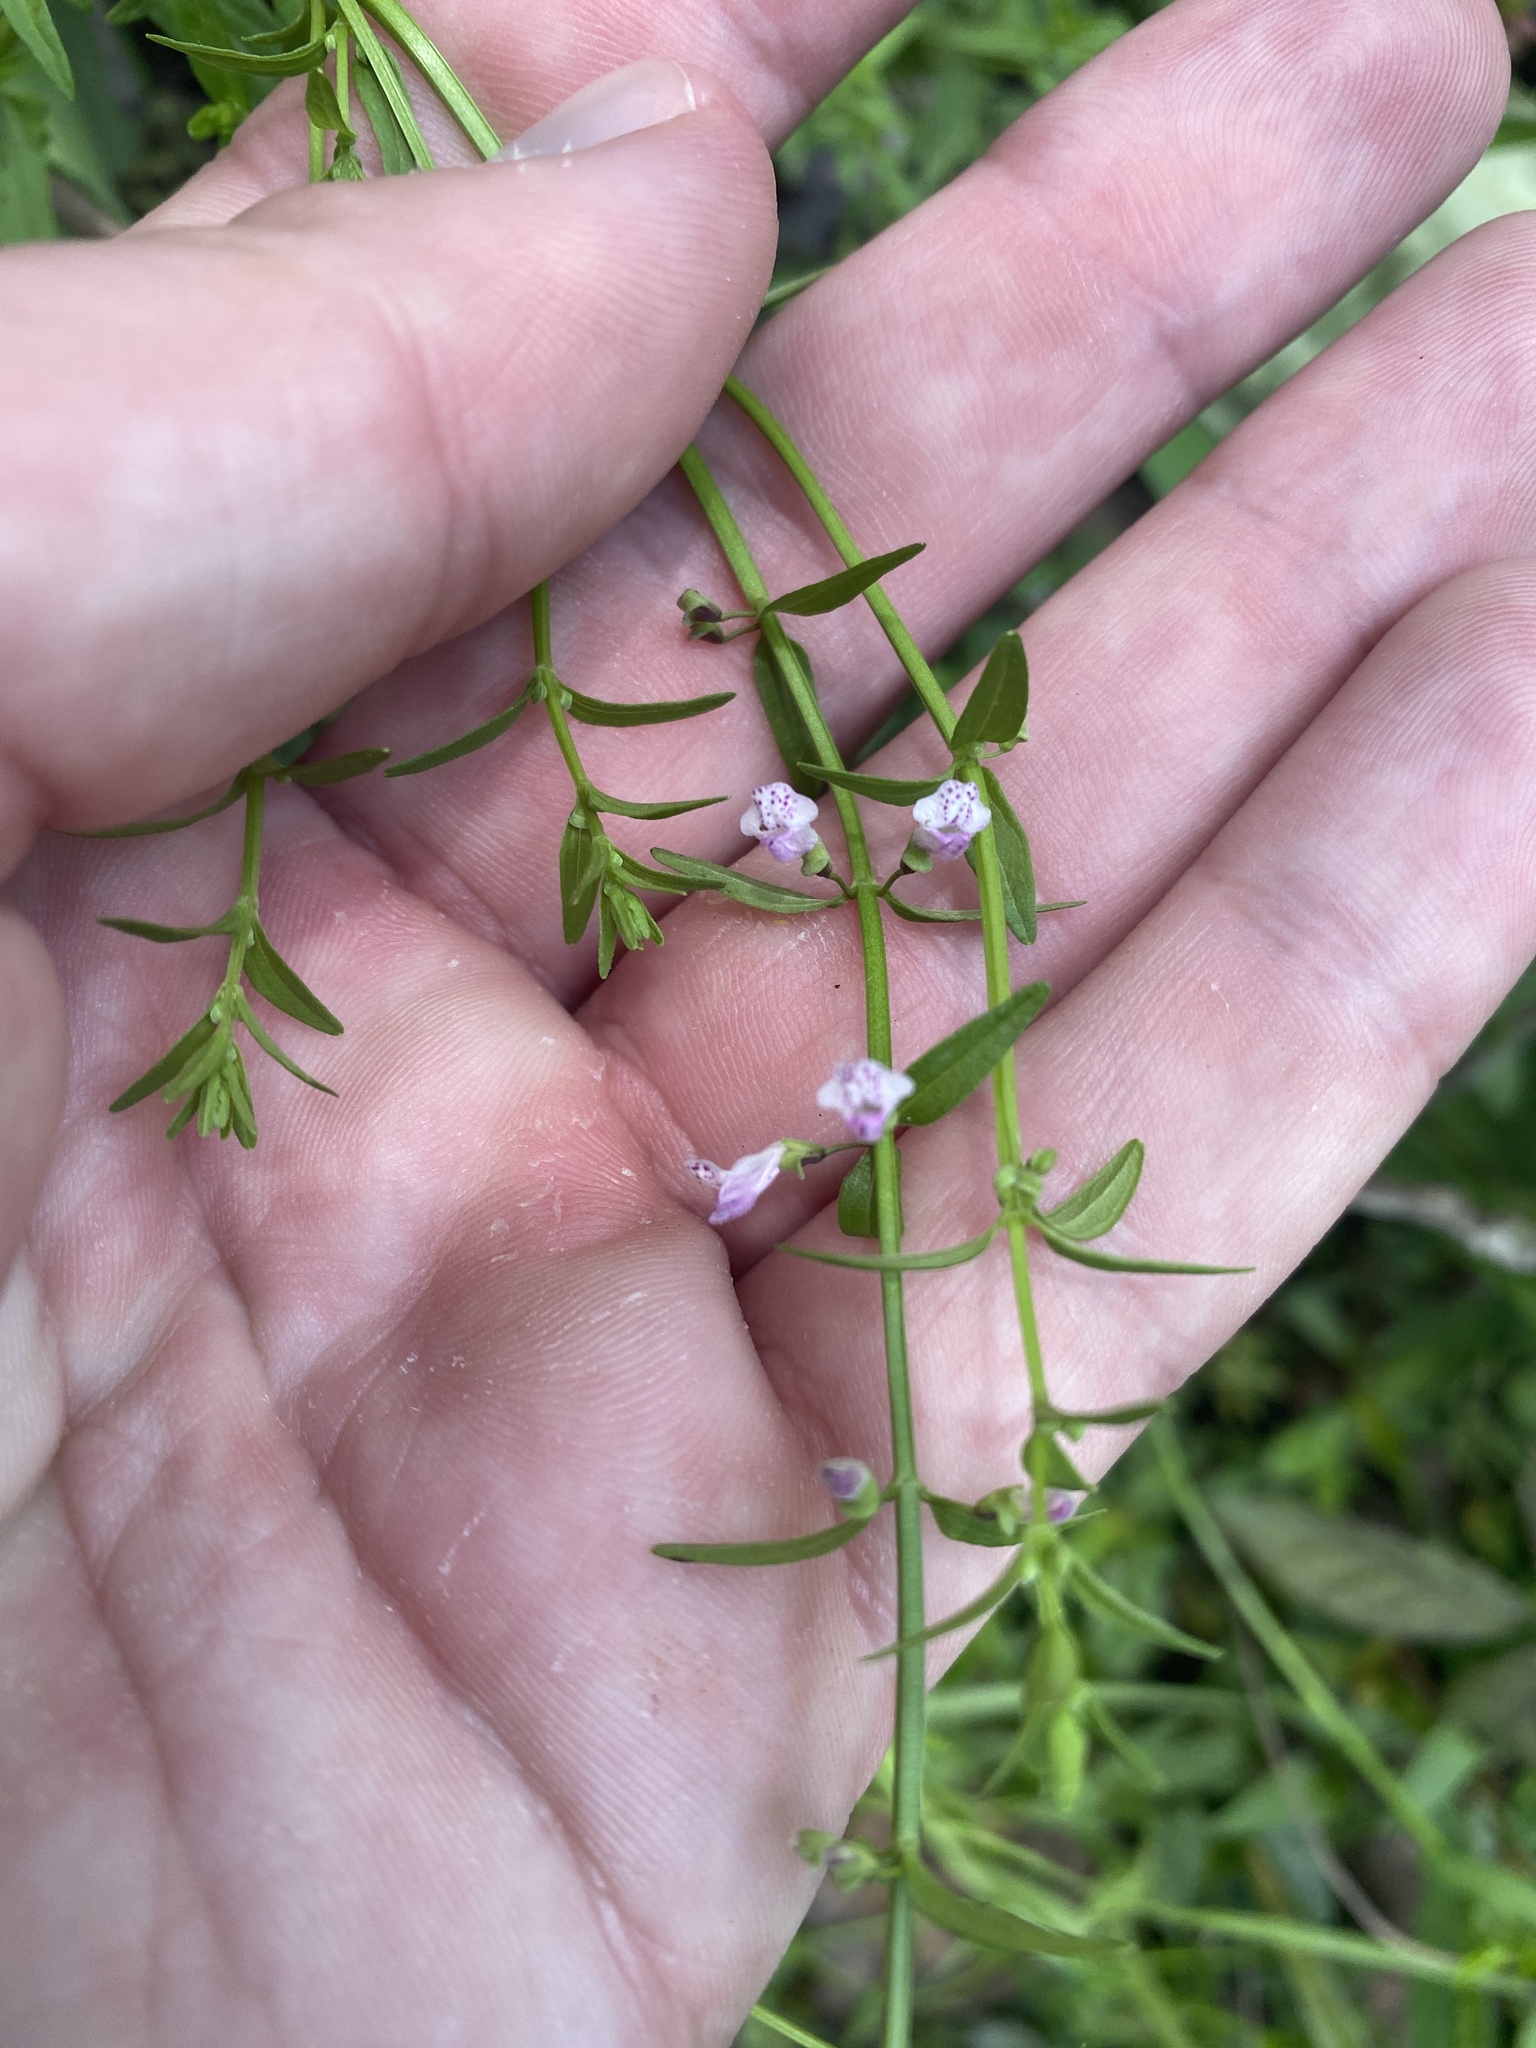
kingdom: Plantae
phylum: Tracheophyta
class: Magnoliopsida
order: Lamiales
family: Lamiaceae
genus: Scutellaria
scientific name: Scutellaria racemosa
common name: South american skullcap
